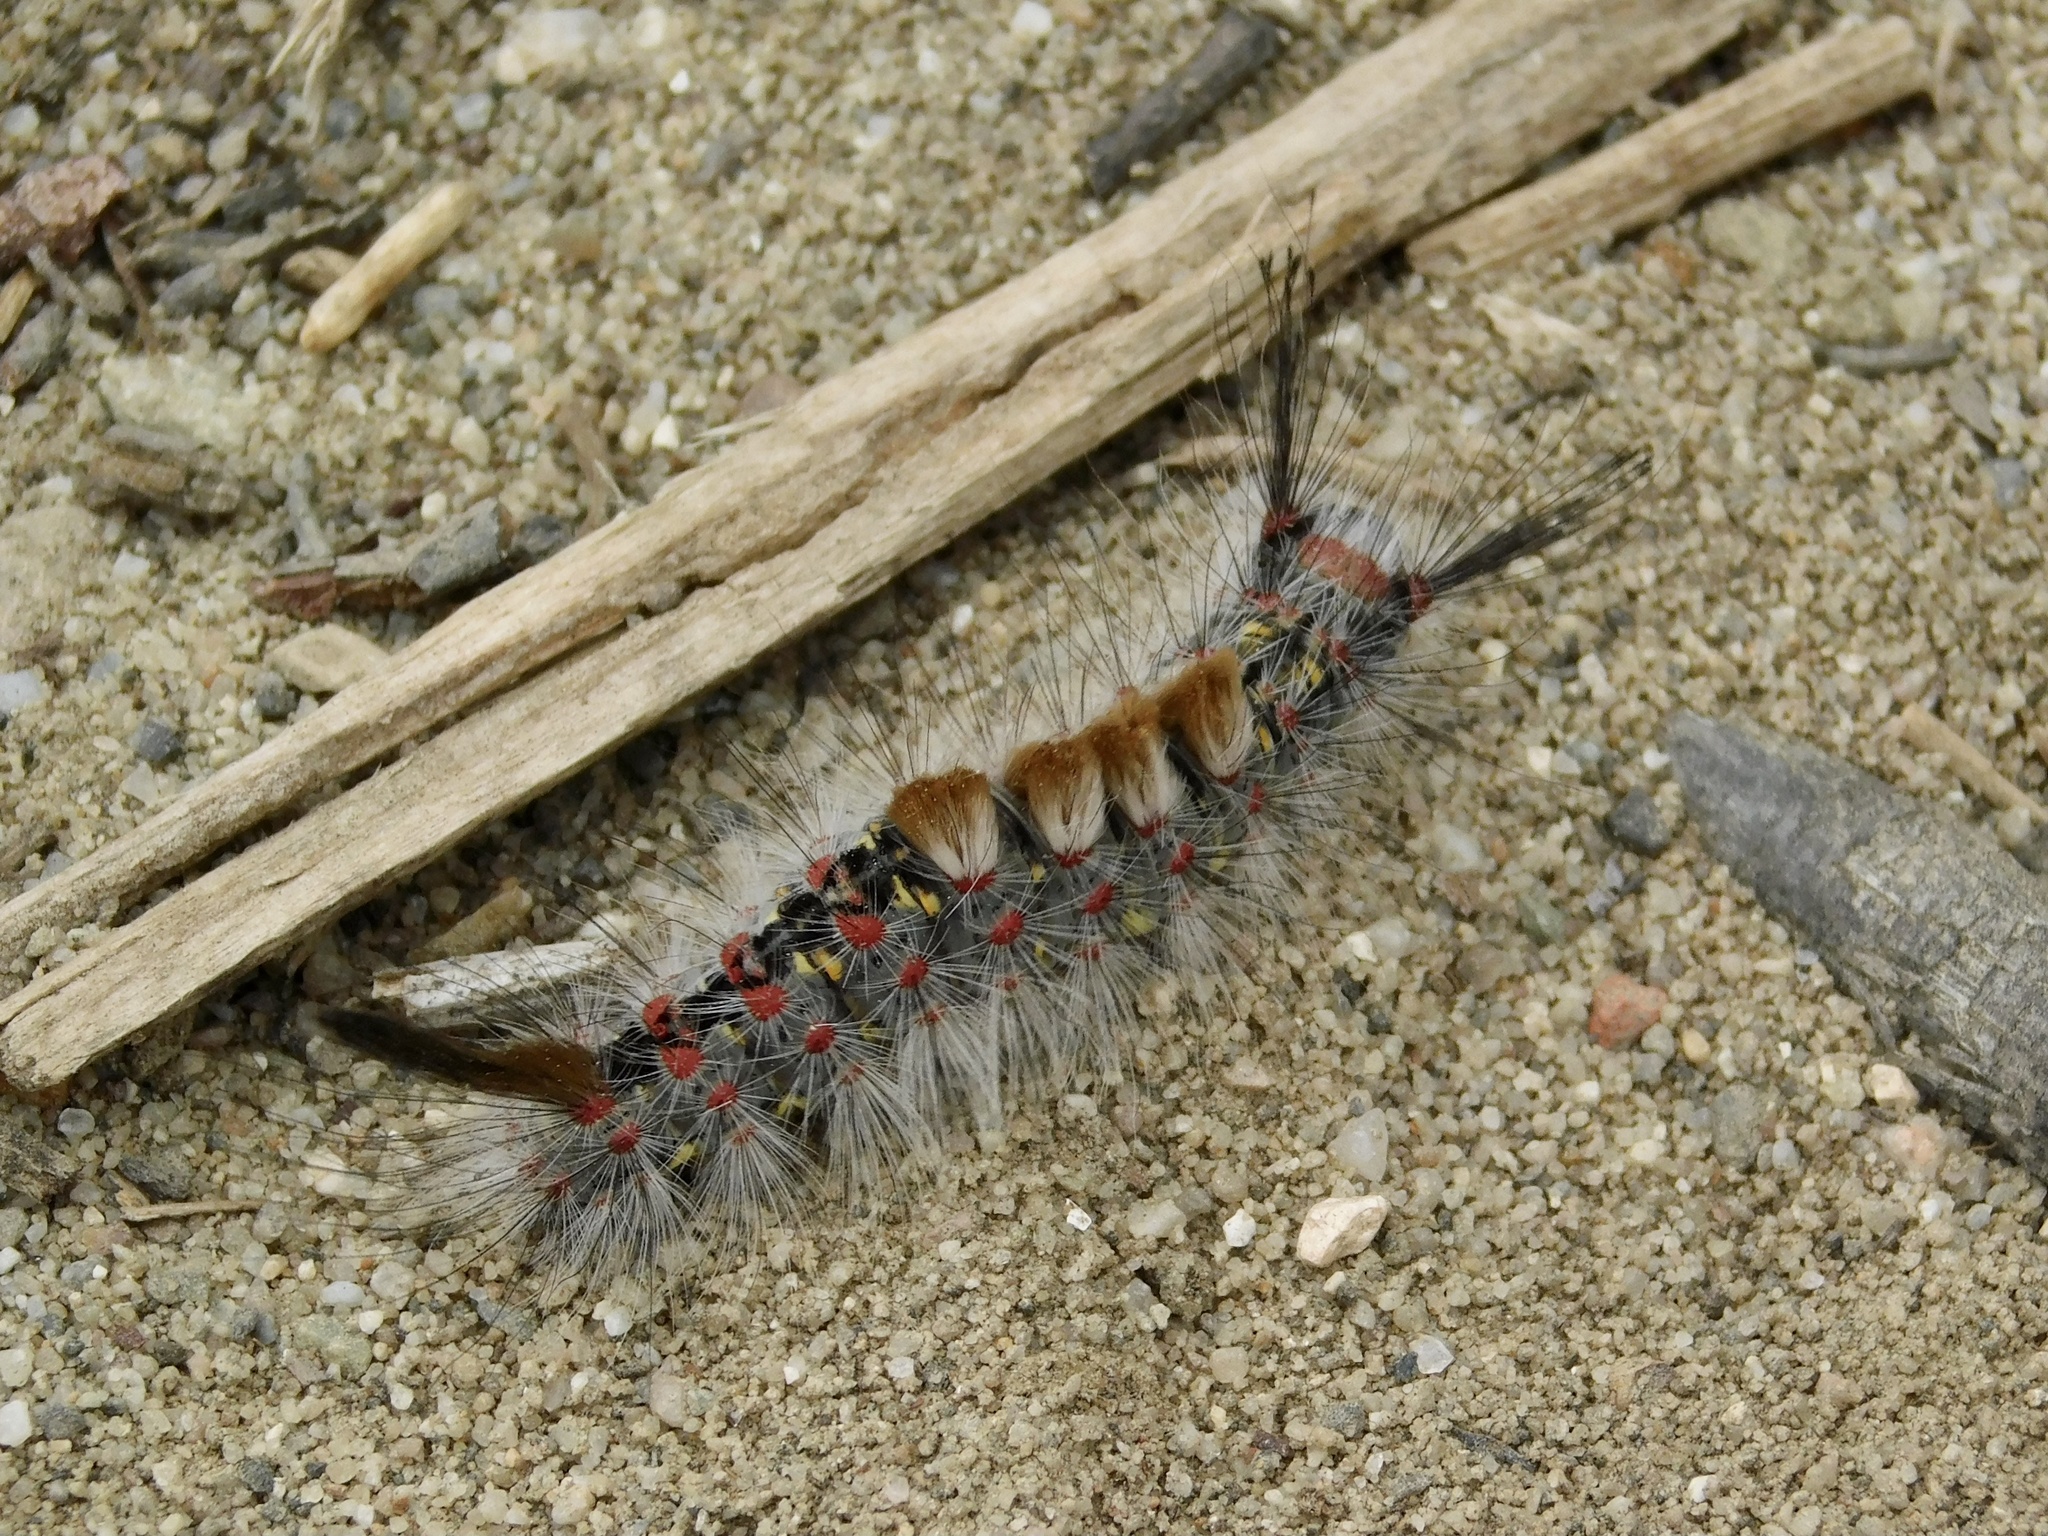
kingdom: Animalia
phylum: Arthropoda
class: Insecta
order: Lepidoptera
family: Erebidae
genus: Orgyia
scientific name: Orgyia vetusta
